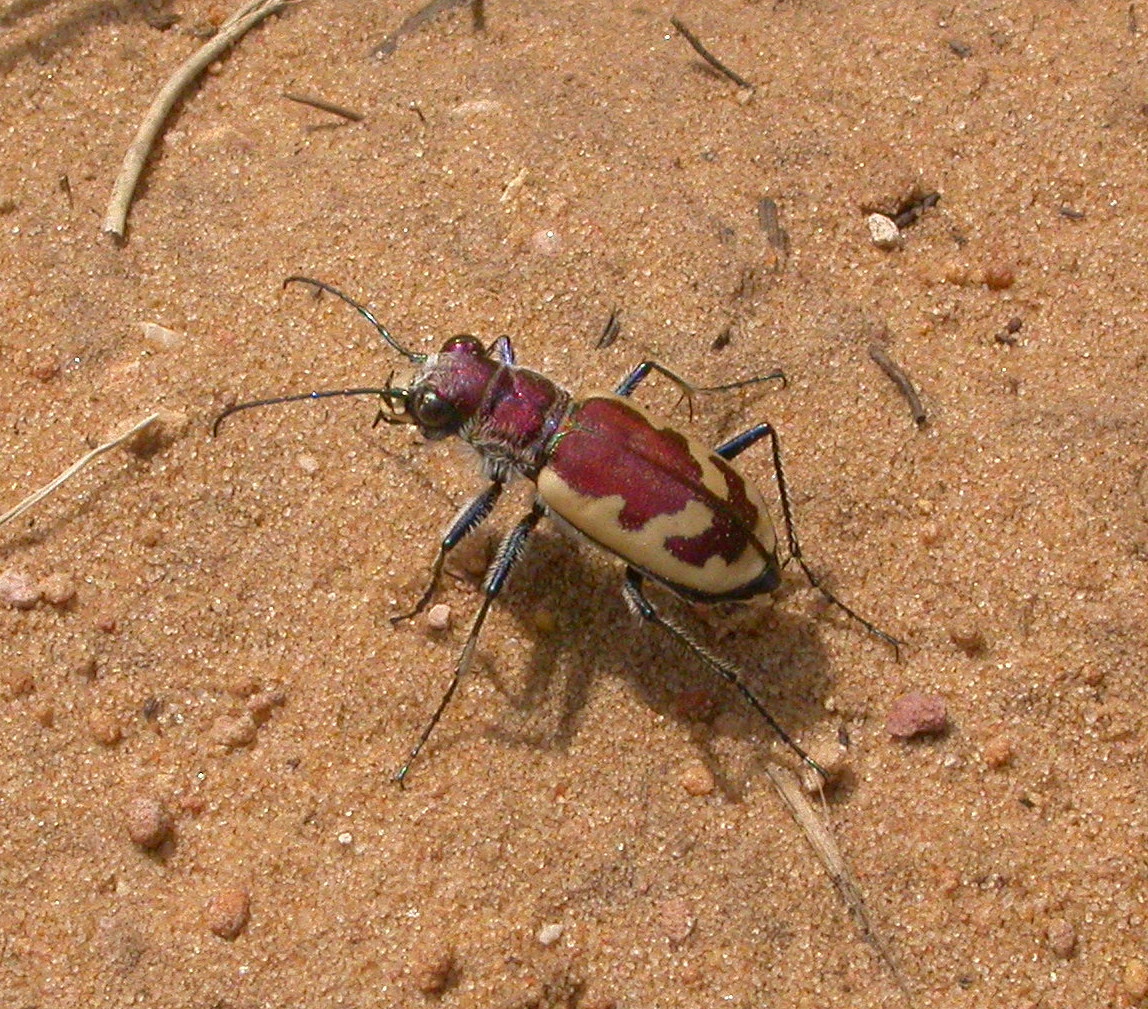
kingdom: Animalia
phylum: Arthropoda
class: Insecta
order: Coleoptera
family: Carabidae
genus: Cicindela
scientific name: Cicindela formosa
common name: Big sand tiger beetle
